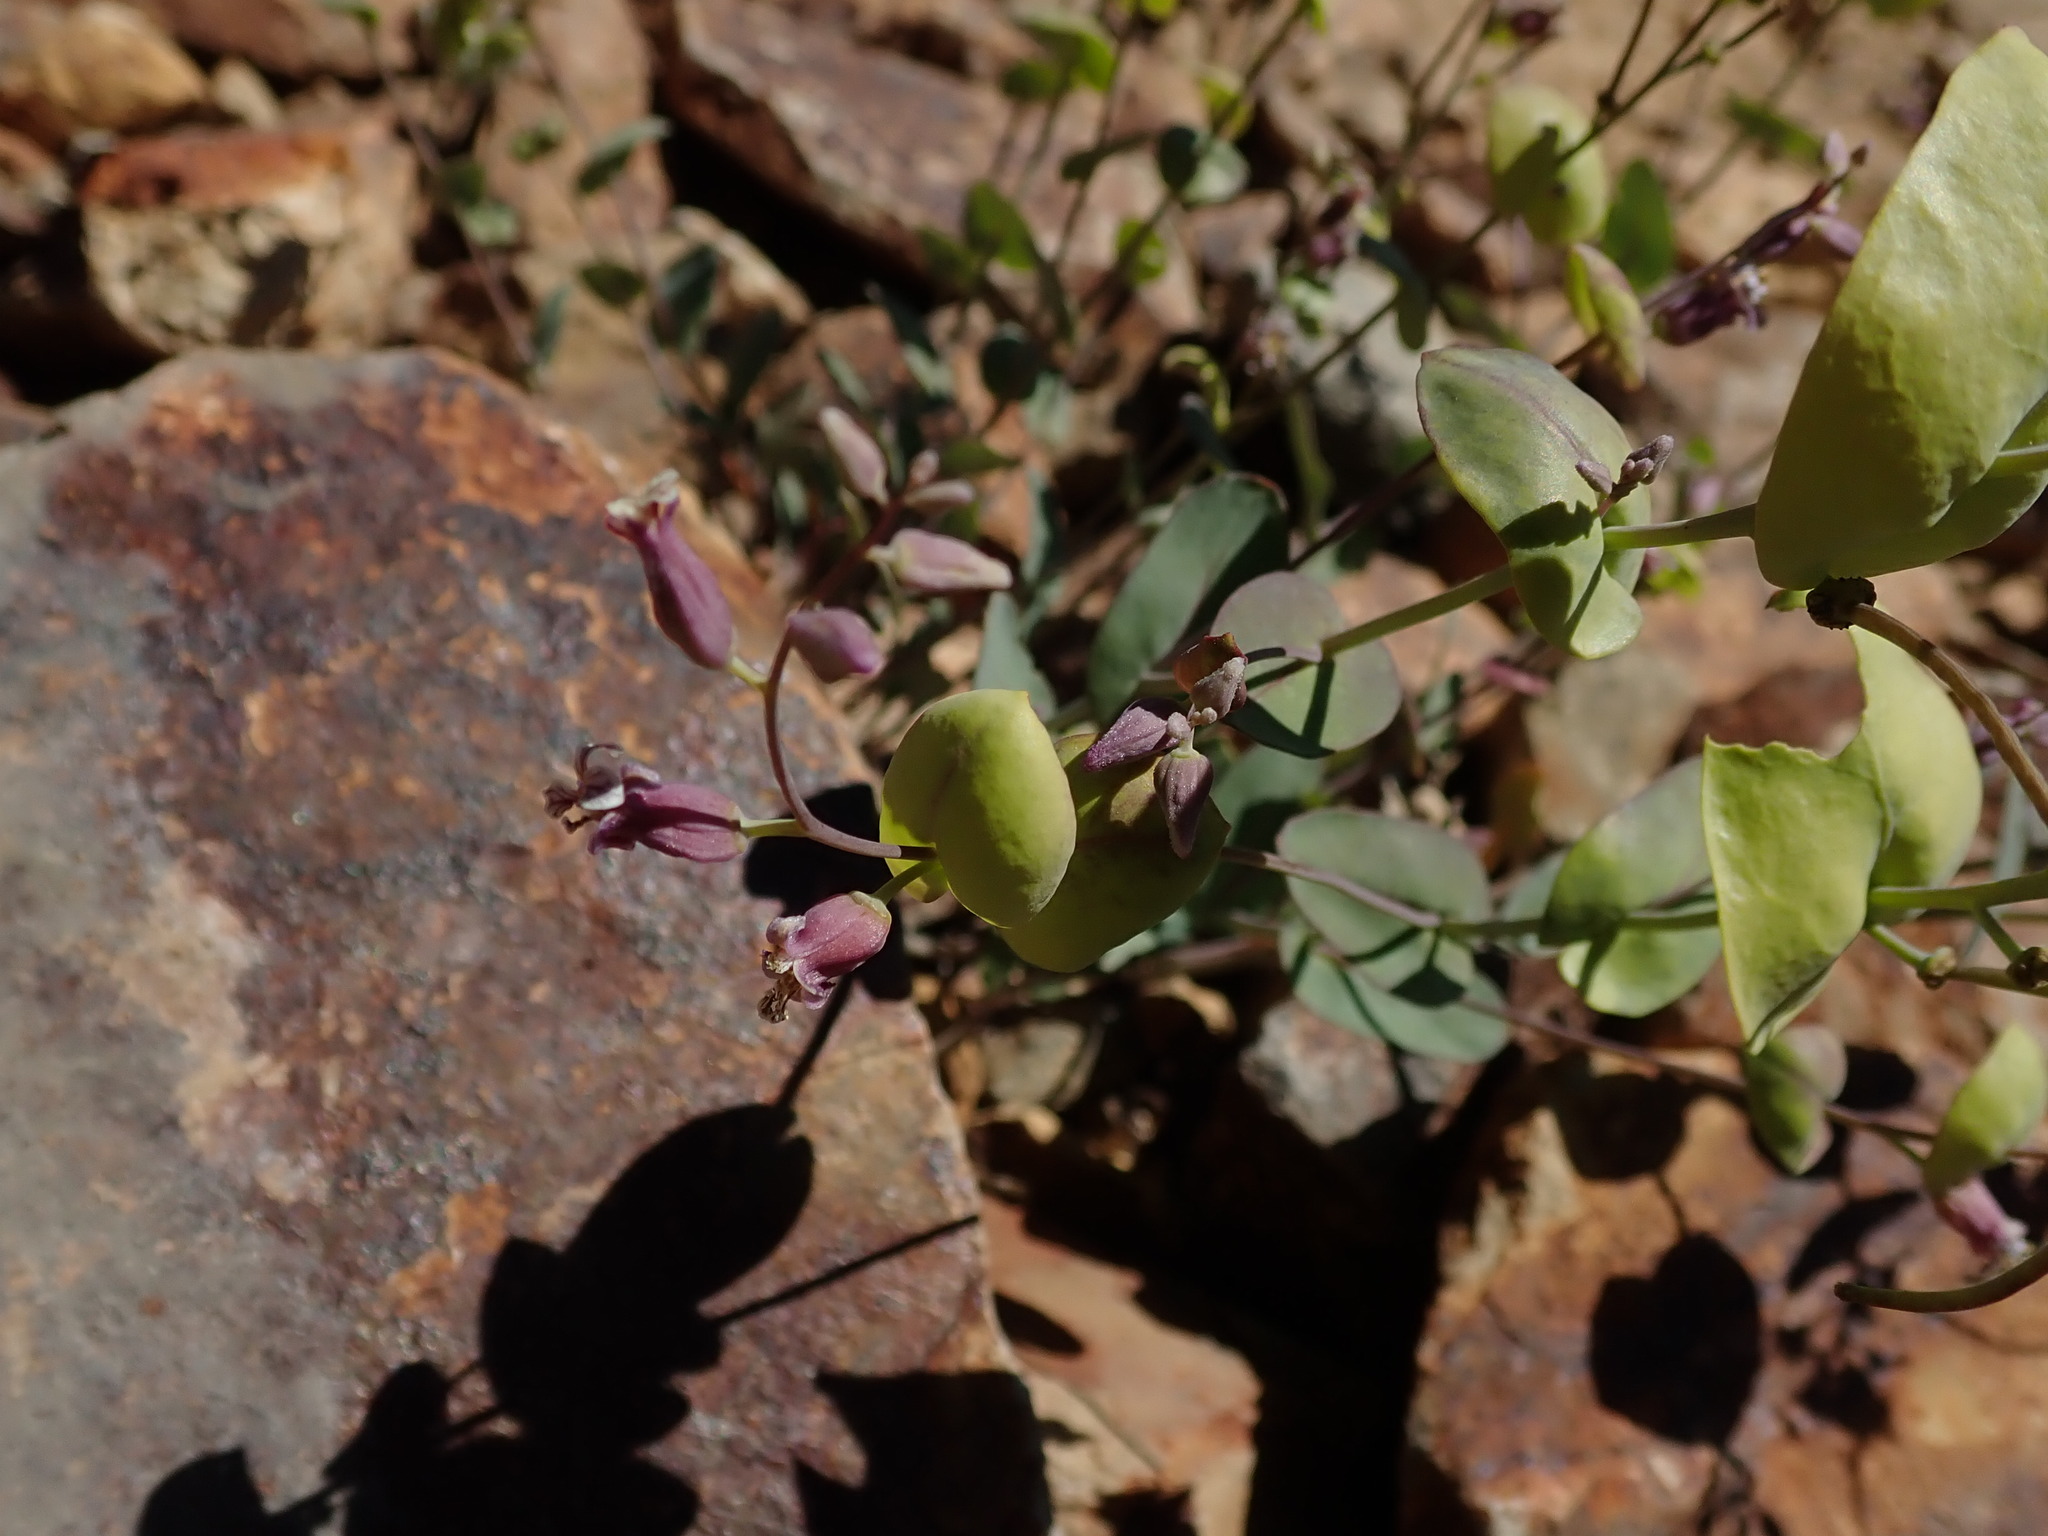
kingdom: Plantae
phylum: Tracheophyta
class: Magnoliopsida
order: Brassicales
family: Brassicaceae
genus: Streptanthus
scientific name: Streptanthus tortuosus
